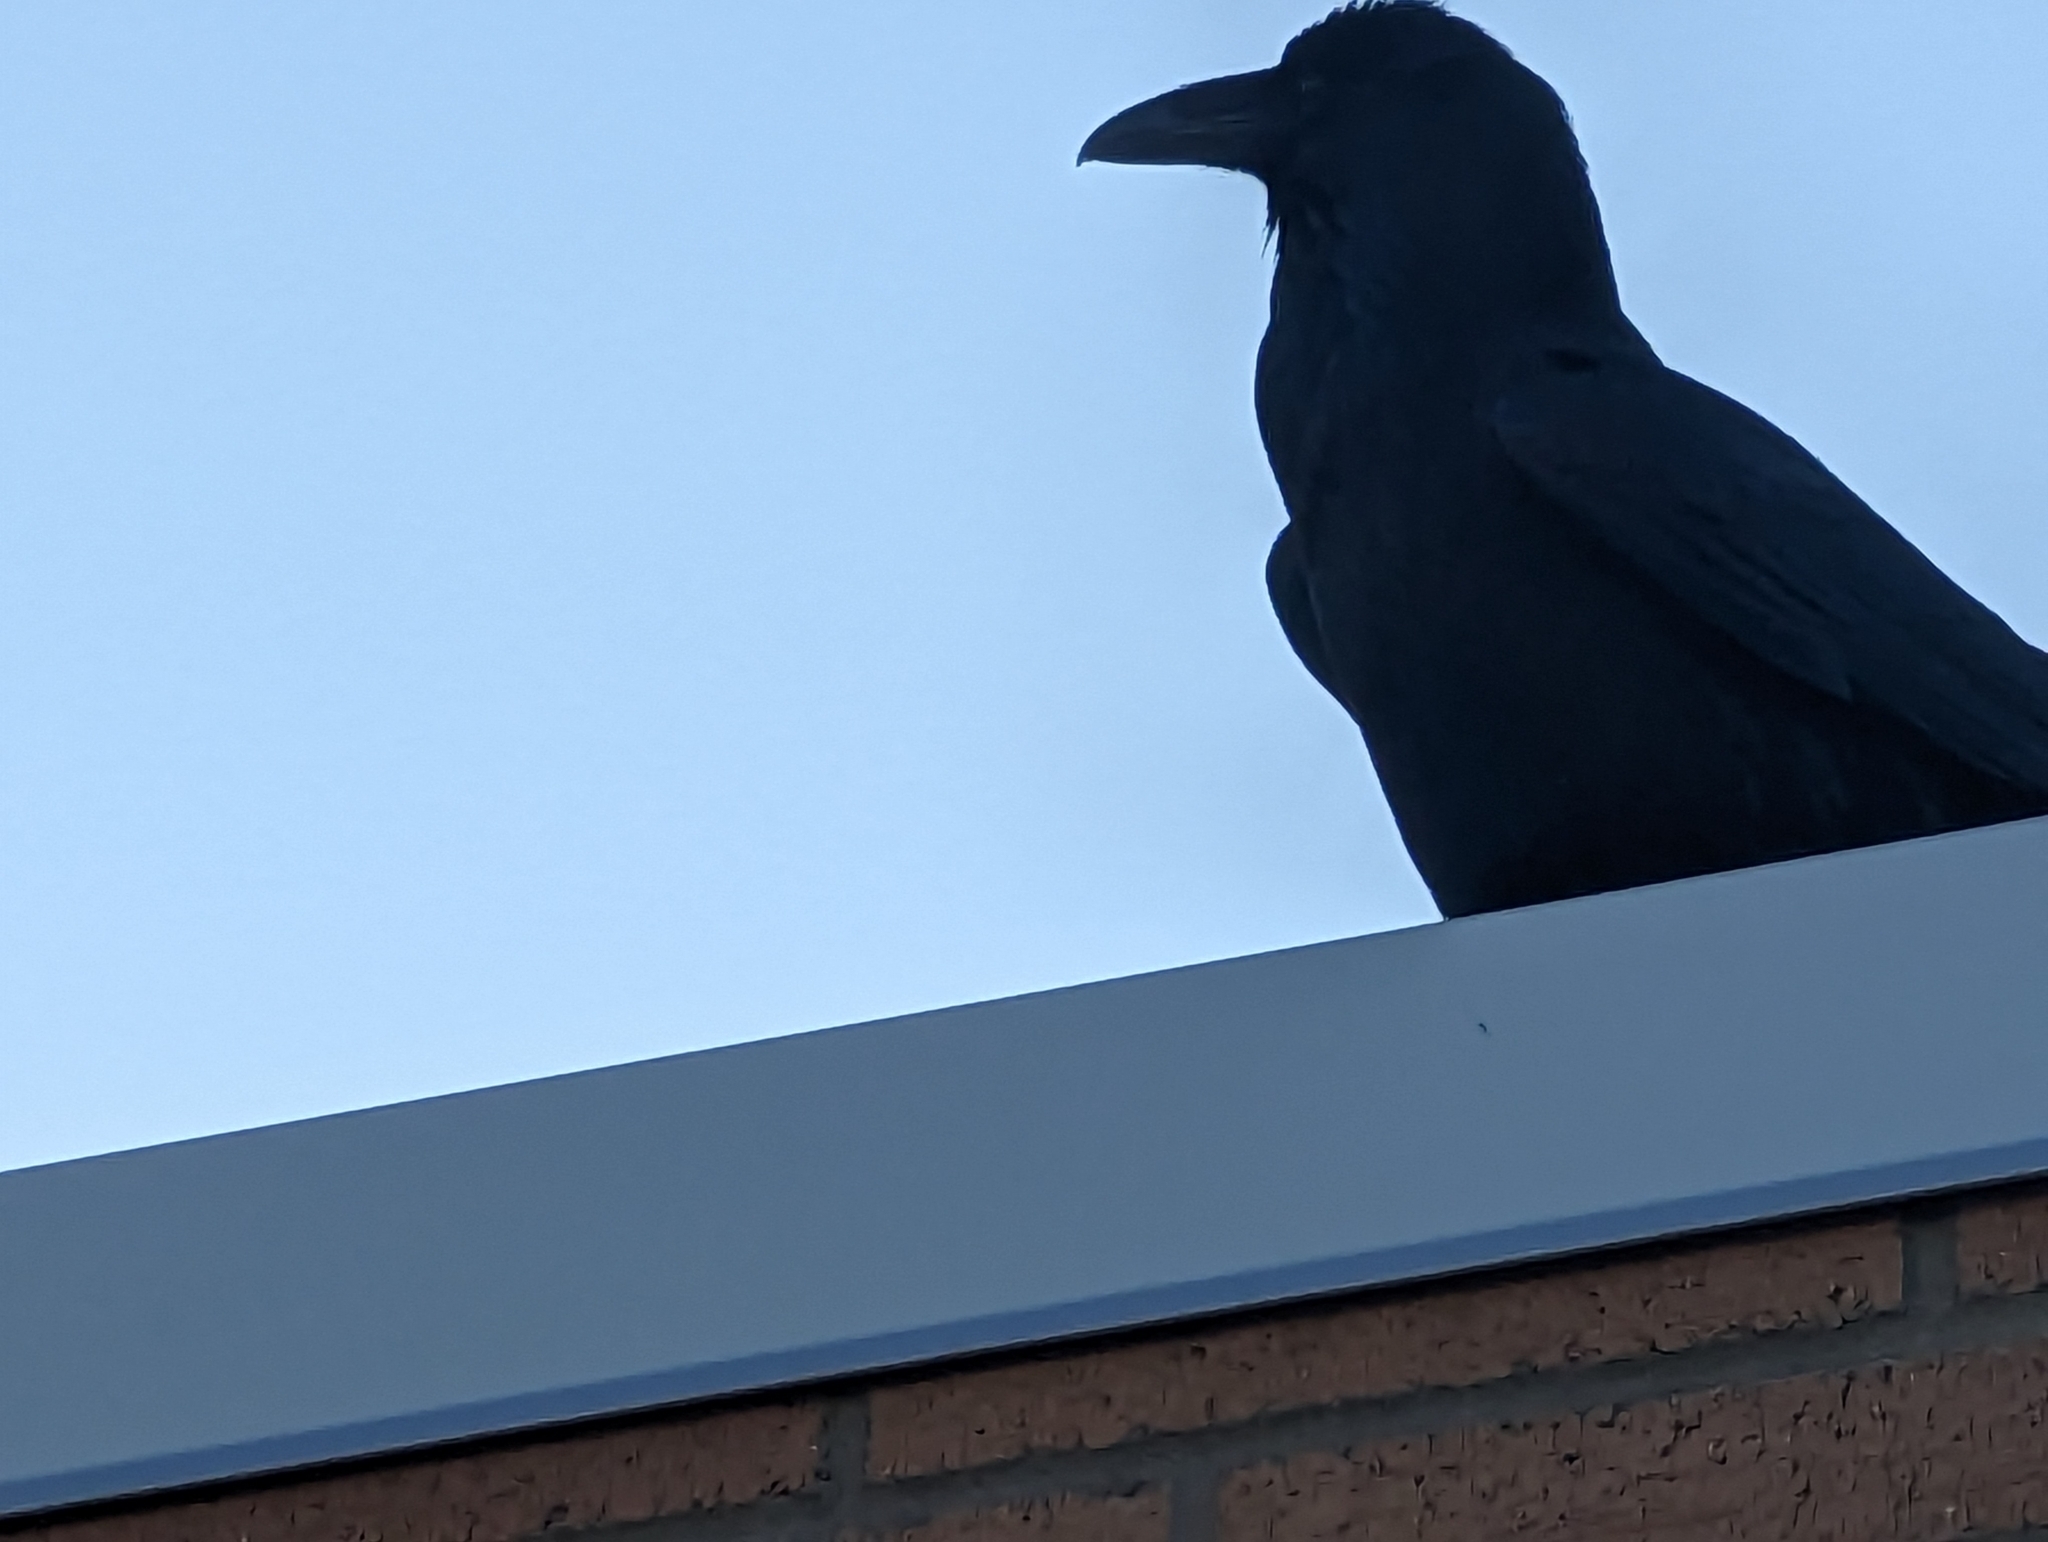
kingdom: Animalia
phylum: Chordata
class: Aves
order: Passeriformes
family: Corvidae
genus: Corvus
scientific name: Corvus corax
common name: Common raven
